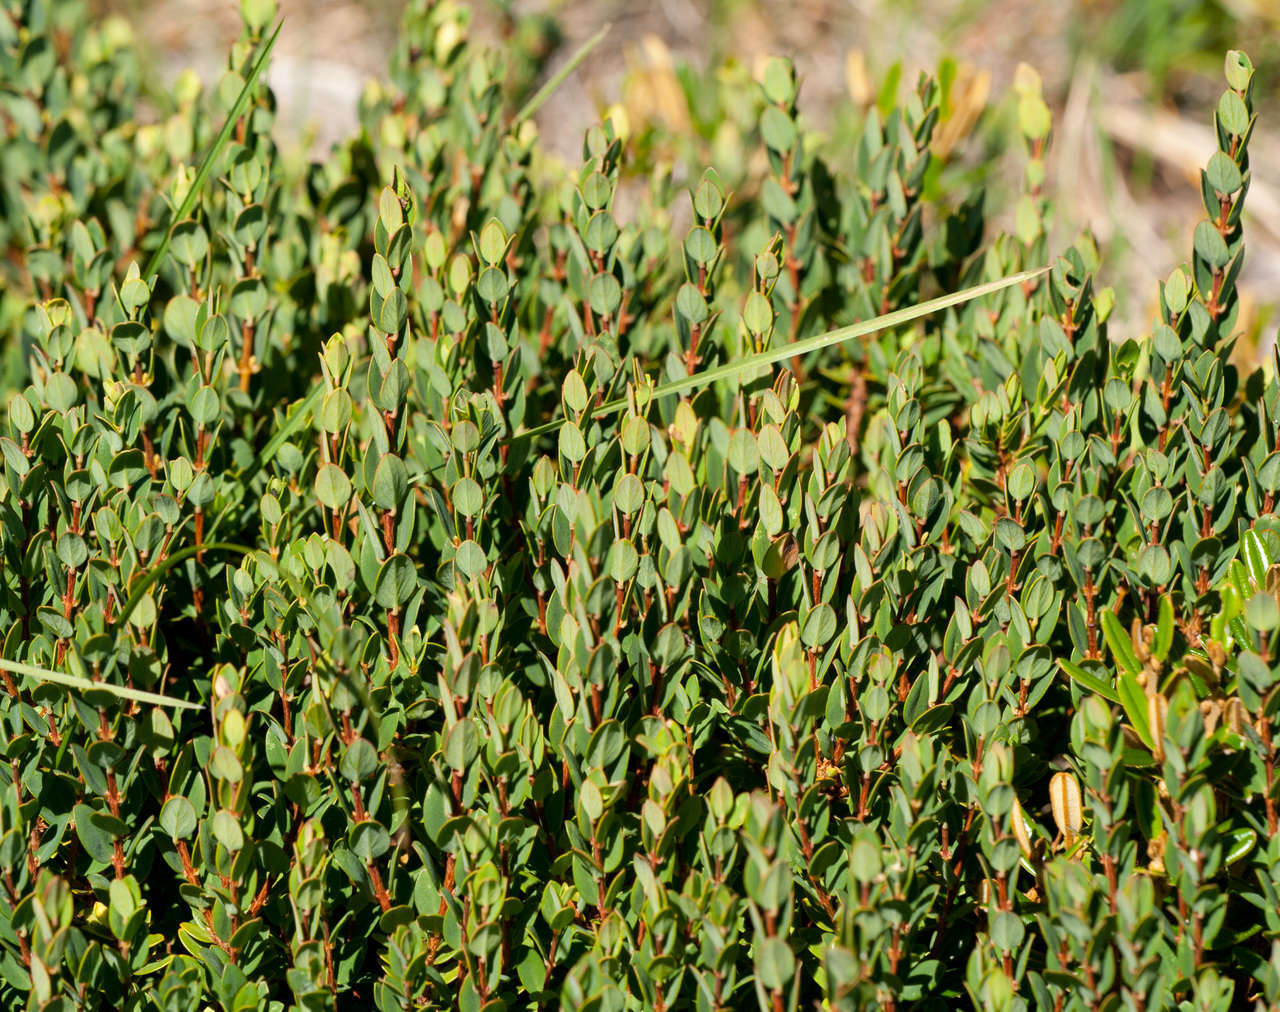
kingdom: Plantae
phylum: Tracheophyta
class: Magnoliopsida
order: Malvales
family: Thymelaeaceae
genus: Pimelea
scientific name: Pimelea axiflora
